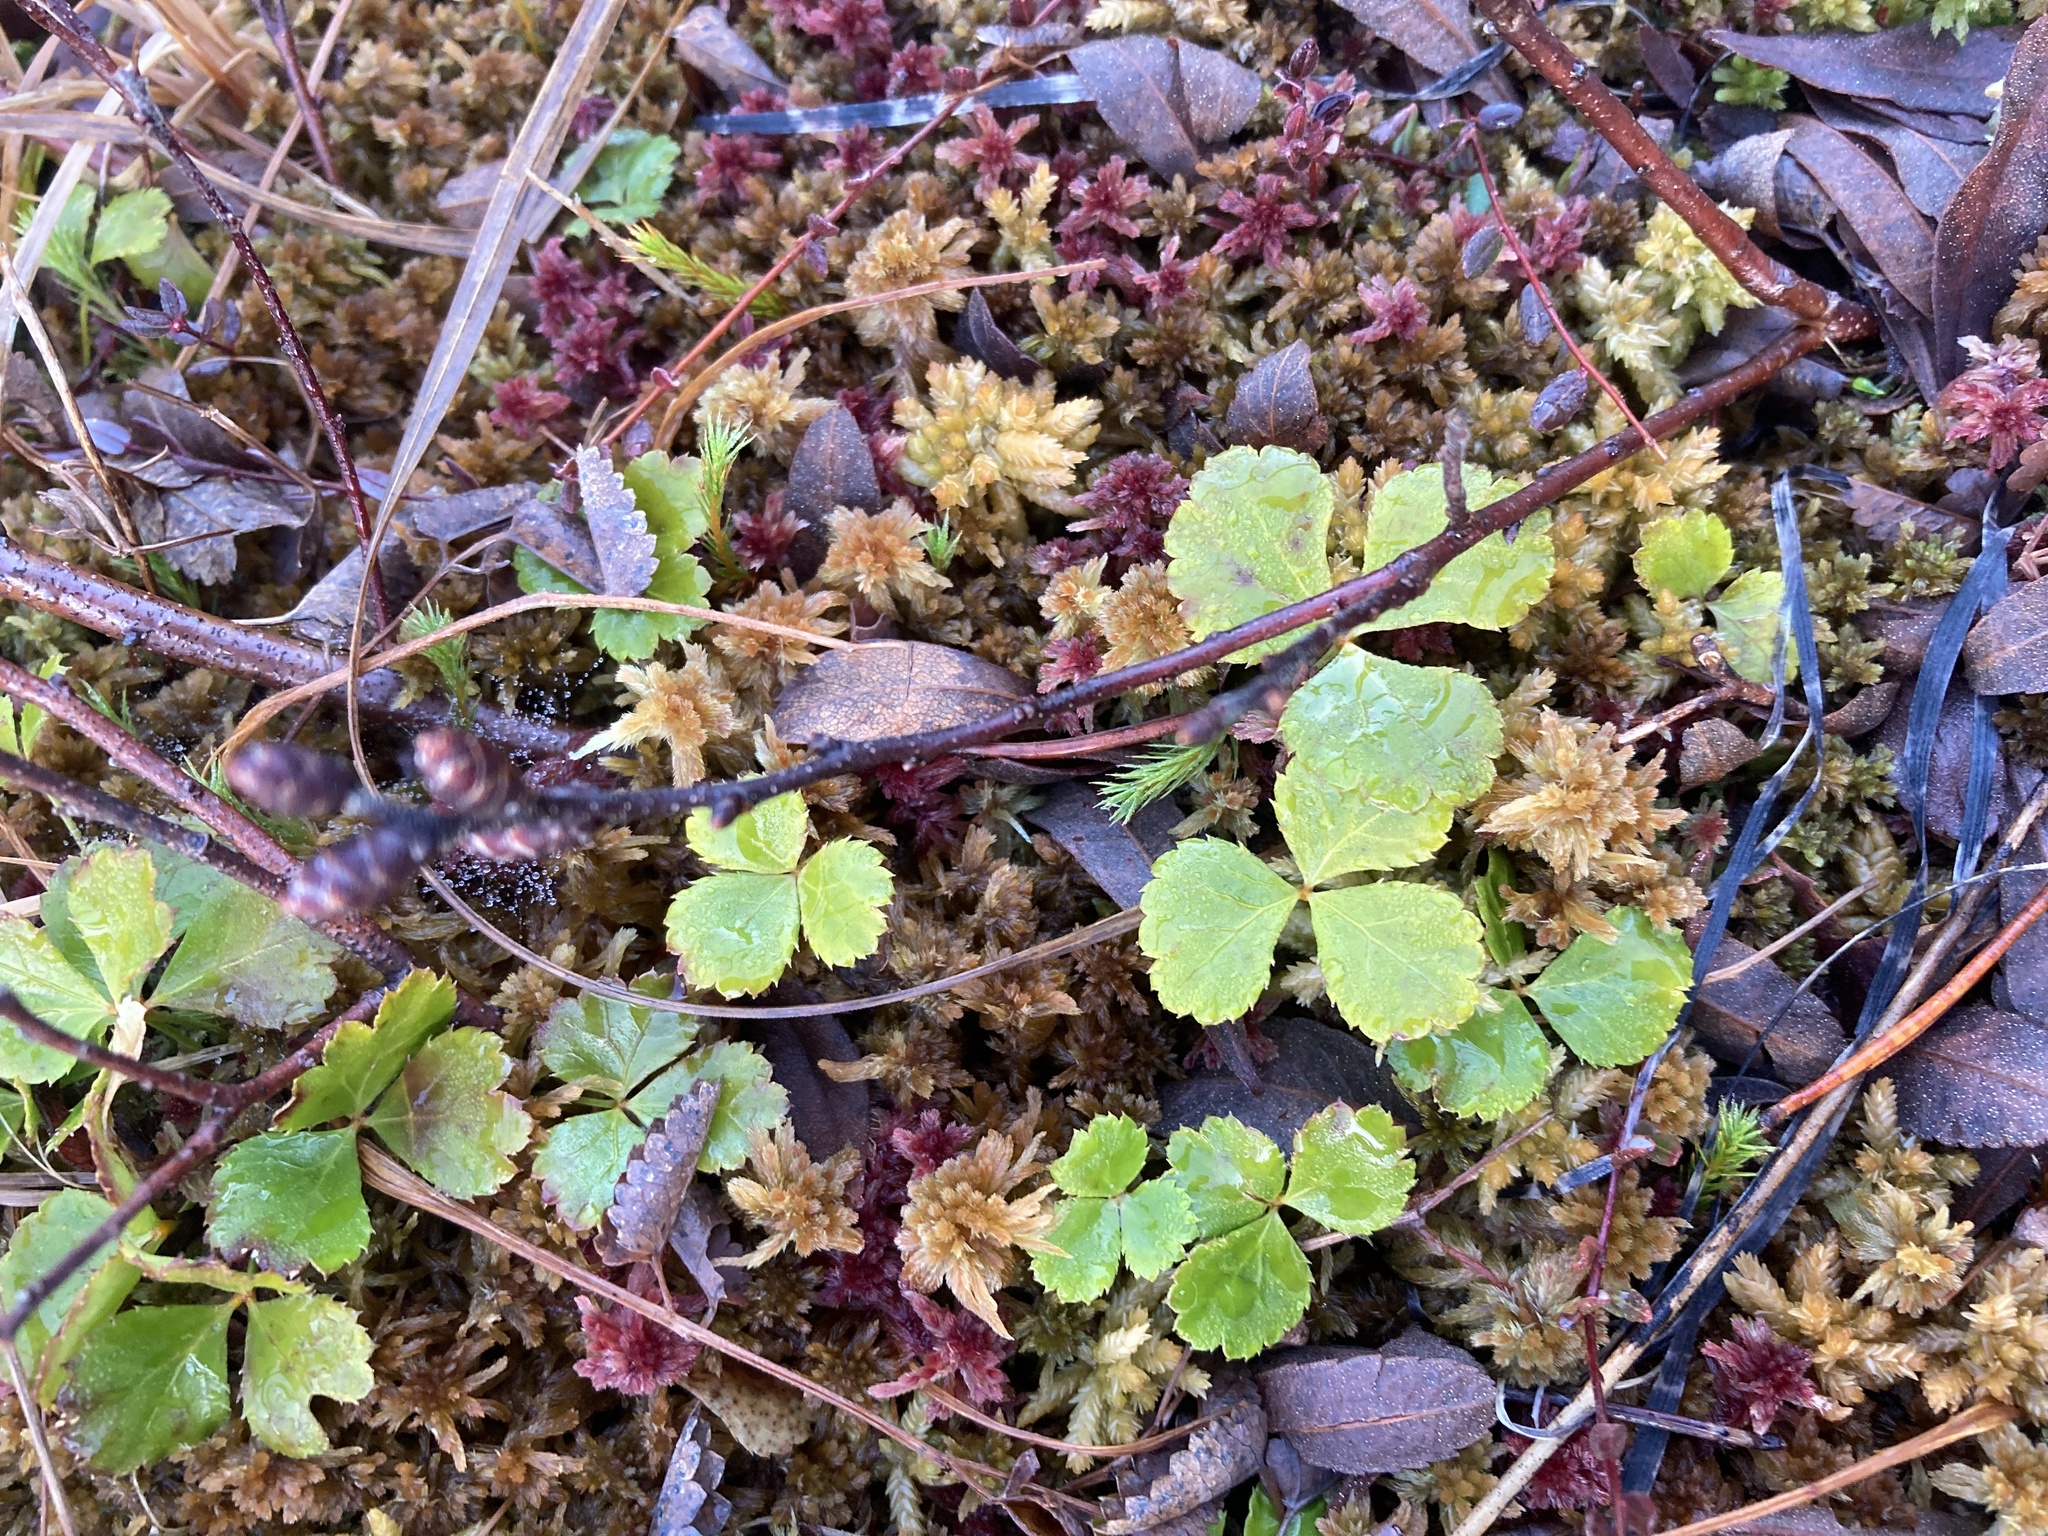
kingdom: Plantae
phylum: Tracheophyta
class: Magnoliopsida
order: Ranunculales
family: Ranunculaceae
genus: Coptis
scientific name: Coptis trifolia
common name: Canker-root
